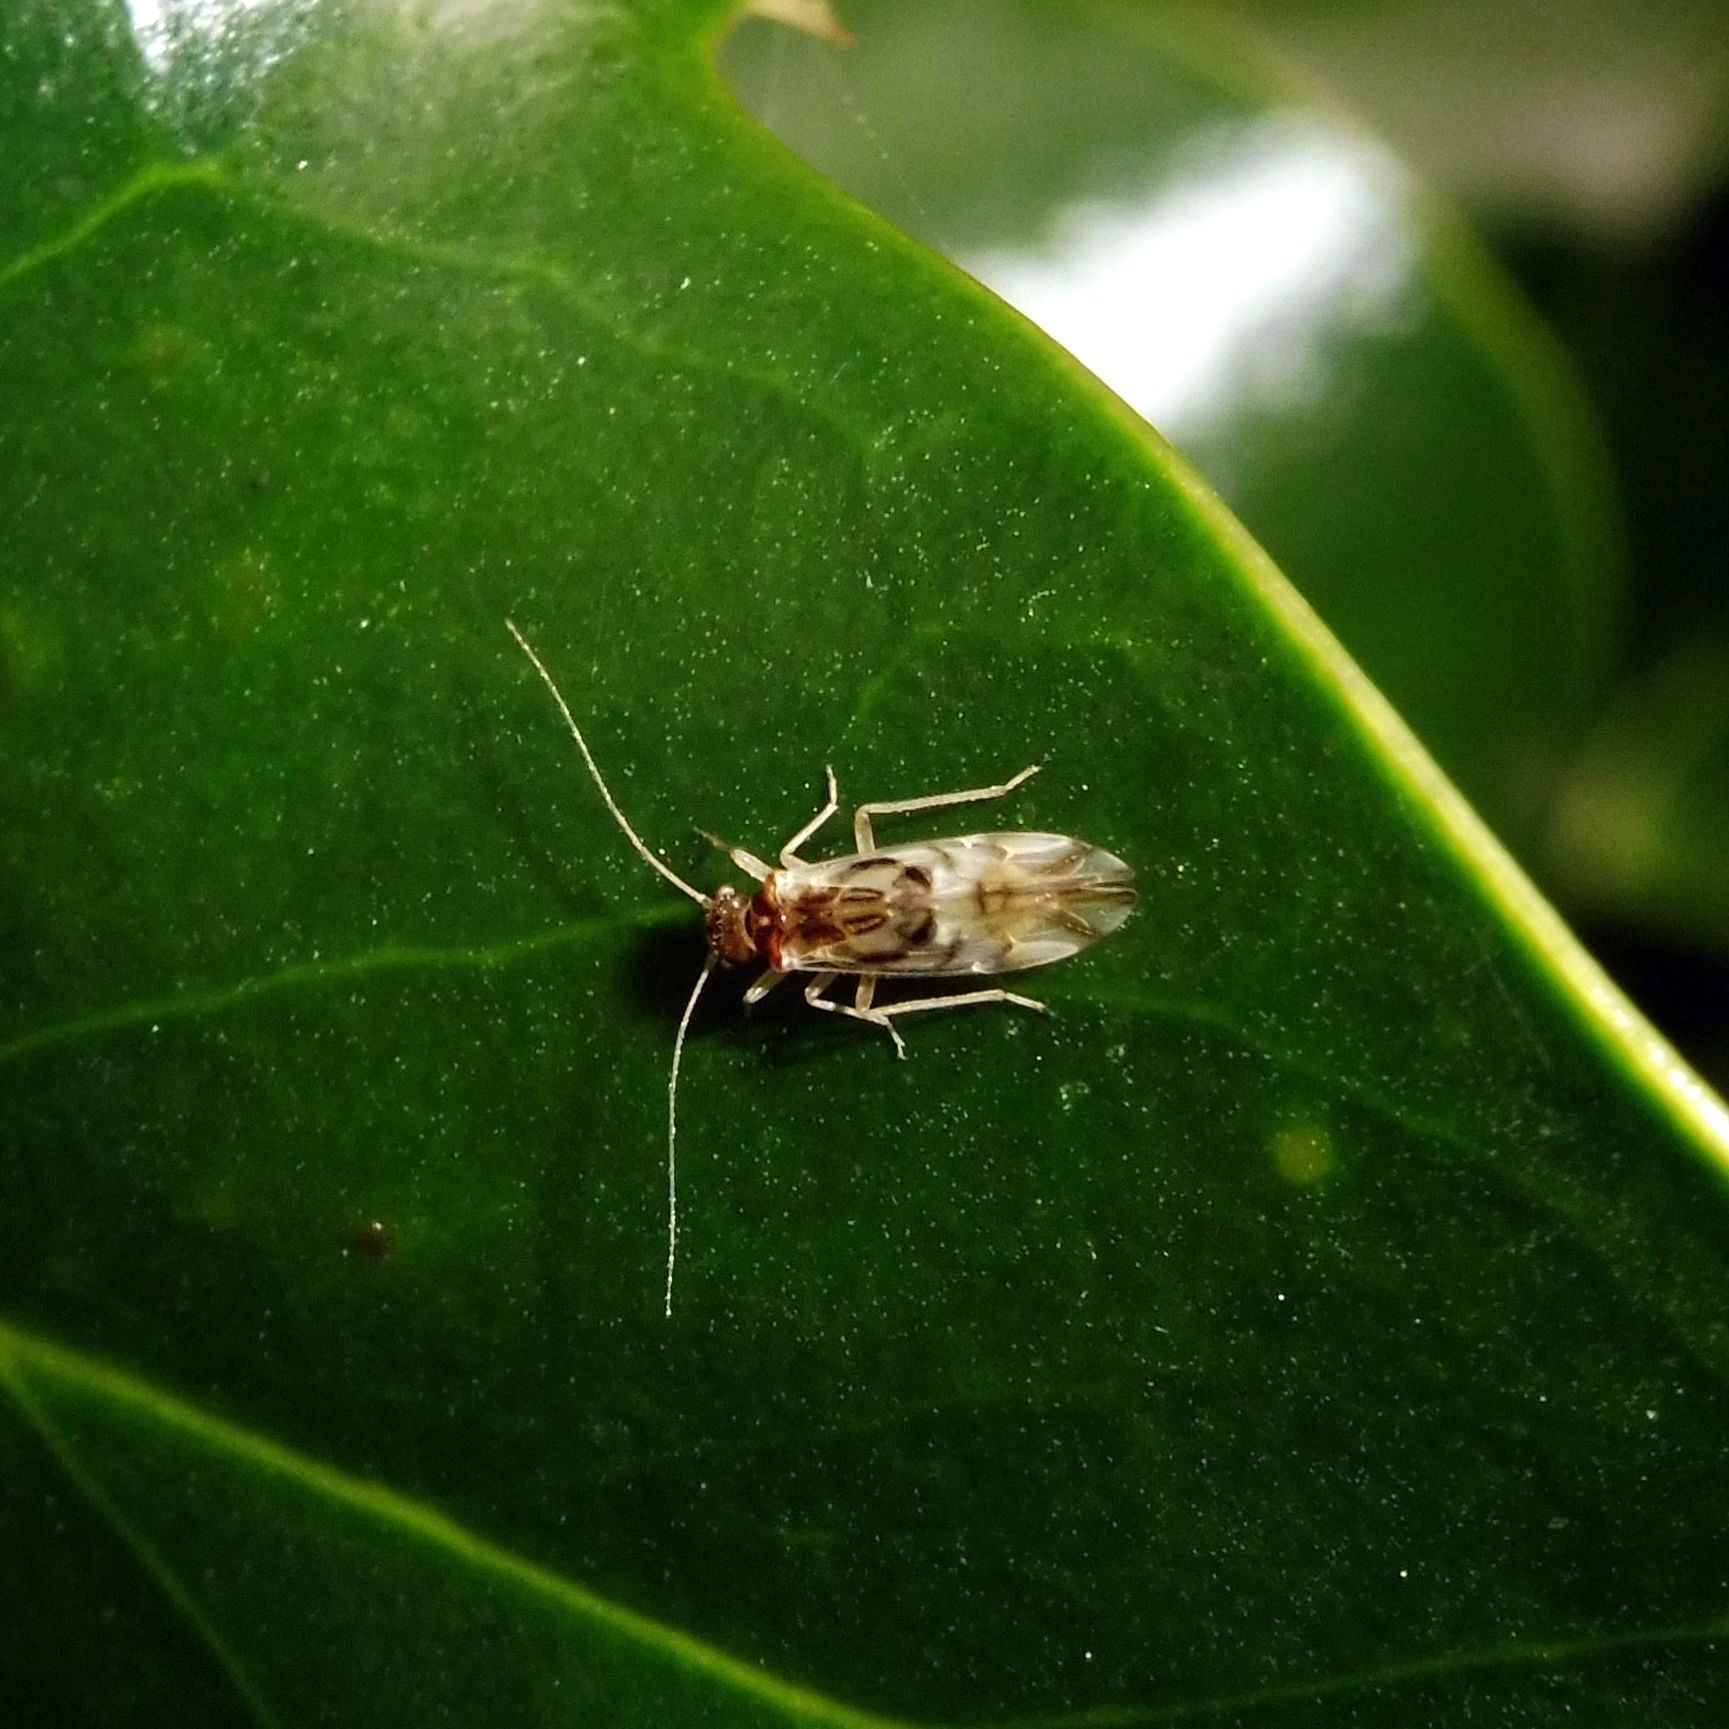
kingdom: Animalia
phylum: Arthropoda
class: Insecta
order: Psocodea
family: Stenopsocidae
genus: Graphopsocus
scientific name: Graphopsocus cruciatus
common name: Lizard bark louse
